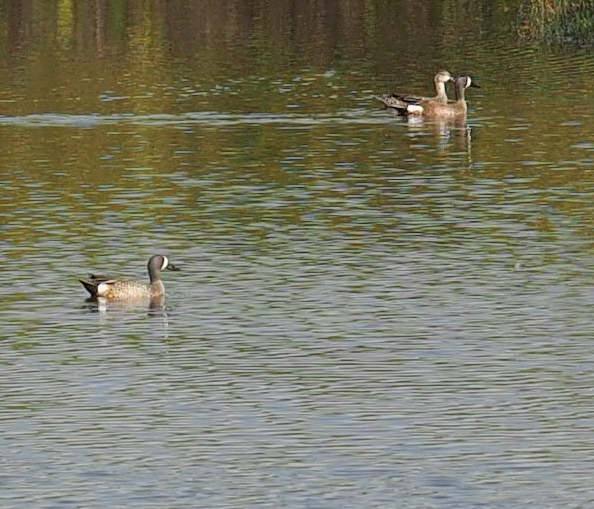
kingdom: Animalia
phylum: Chordata
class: Aves
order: Anseriformes
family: Anatidae
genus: Spatula
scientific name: Spatula discors
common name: Blue-winged teal
